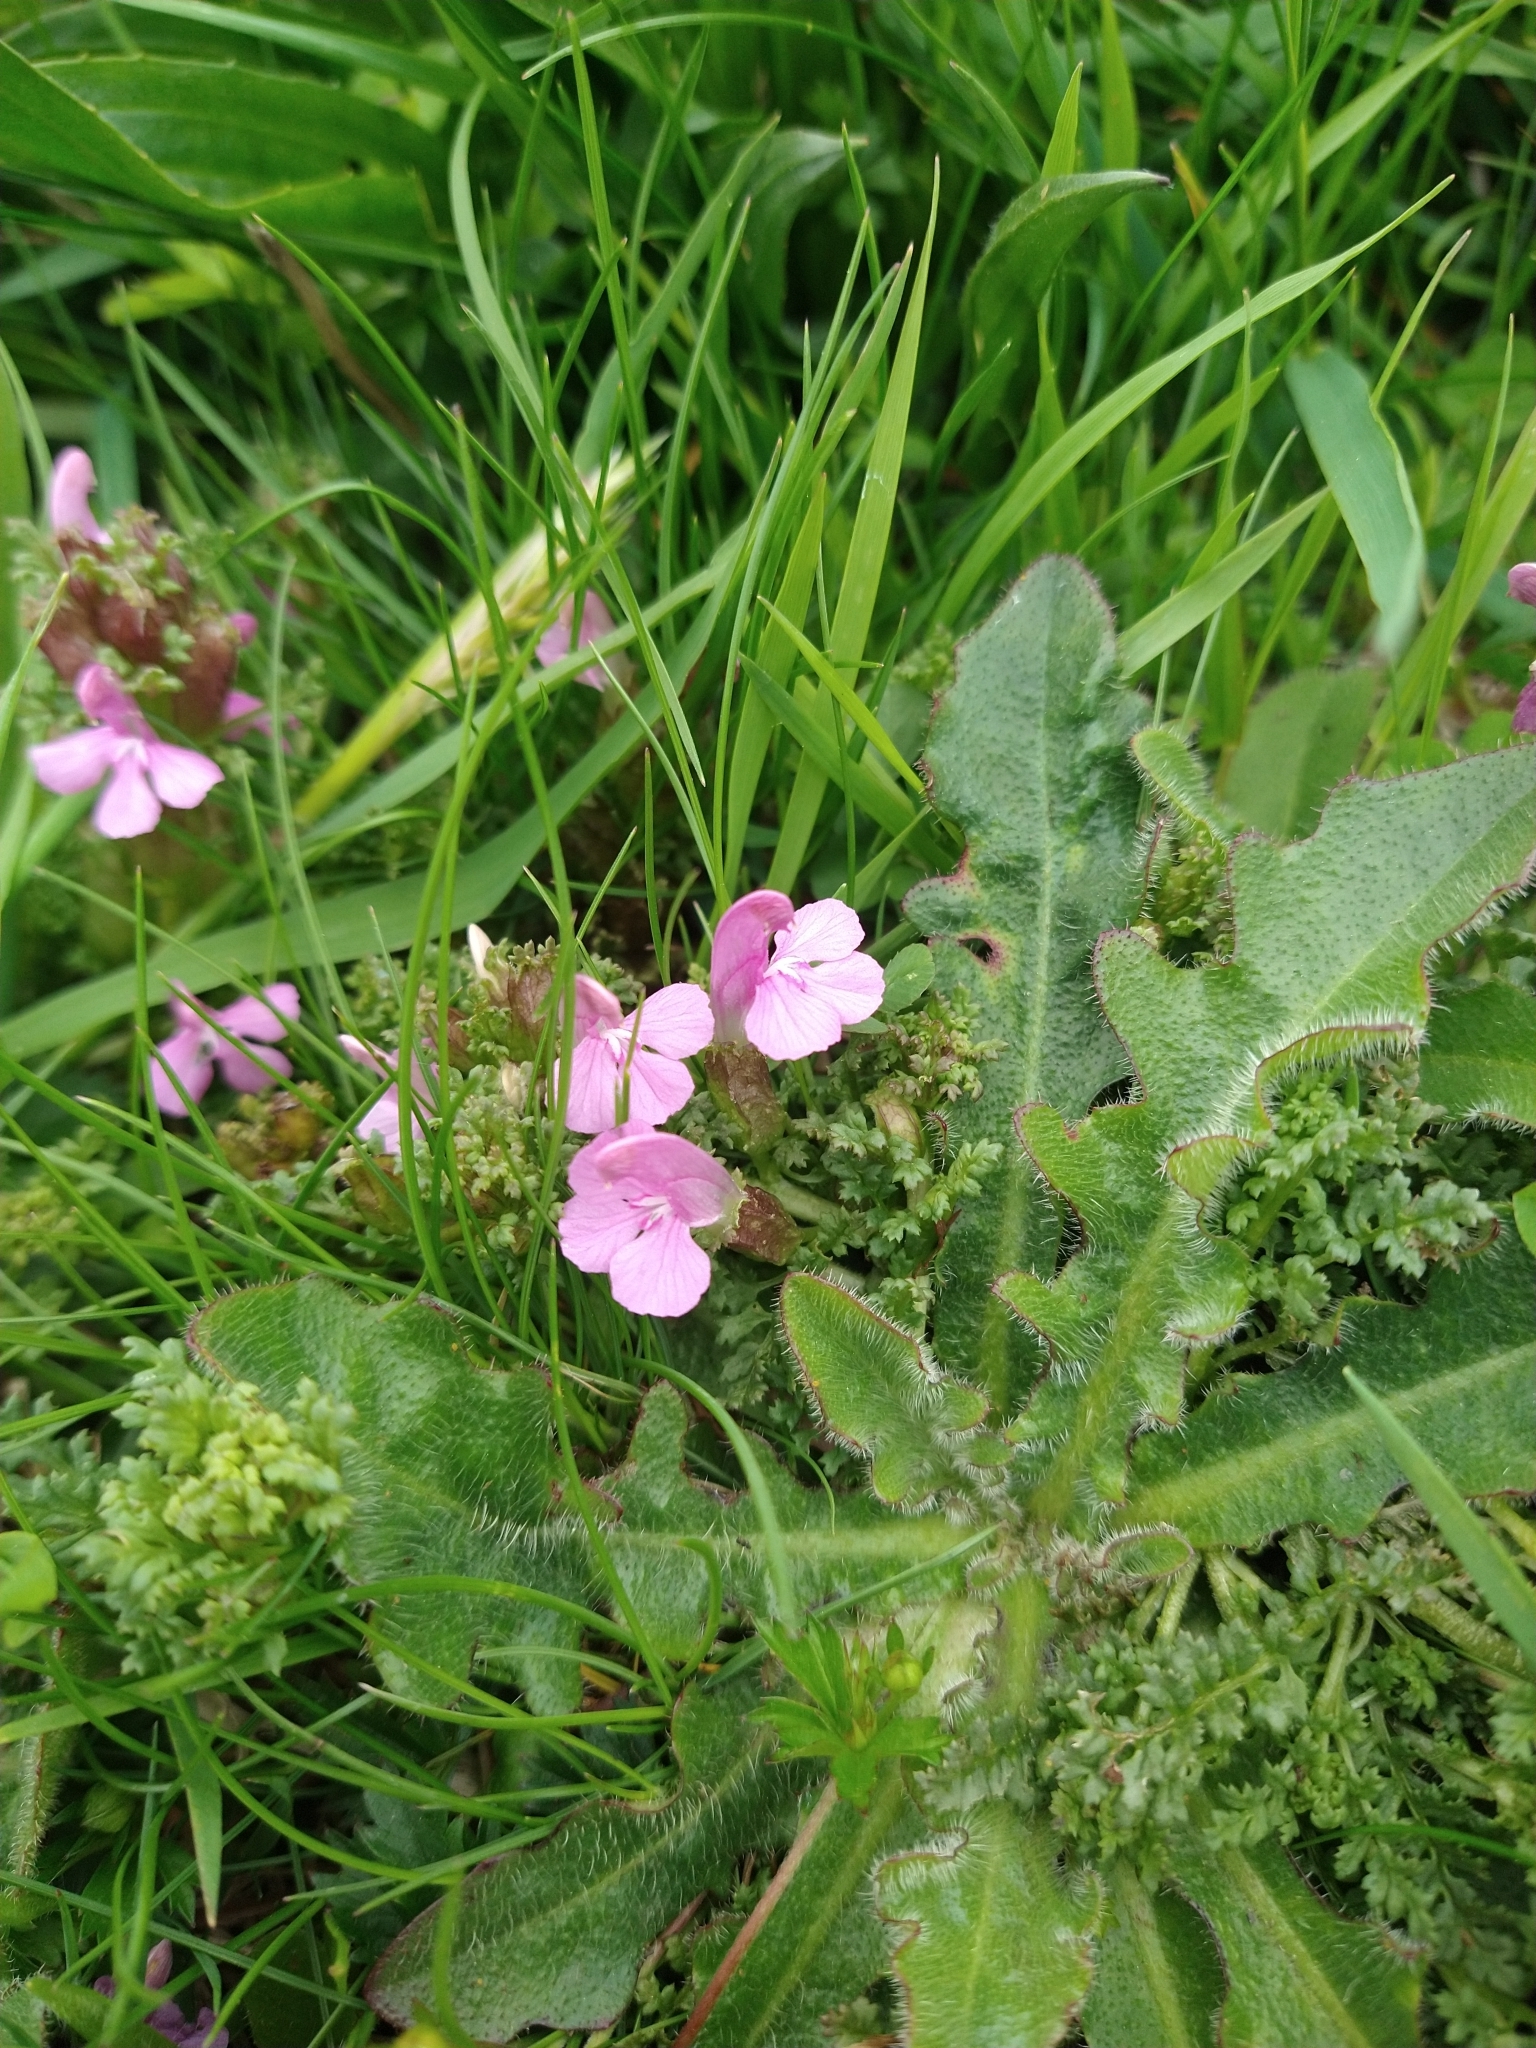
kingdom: Plantae
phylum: Tracheophyta
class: Magnoliopsida
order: Lamiales
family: Orobanchaceae
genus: Pedicularis
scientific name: Pedicularis sylvatica
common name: Lousewort
